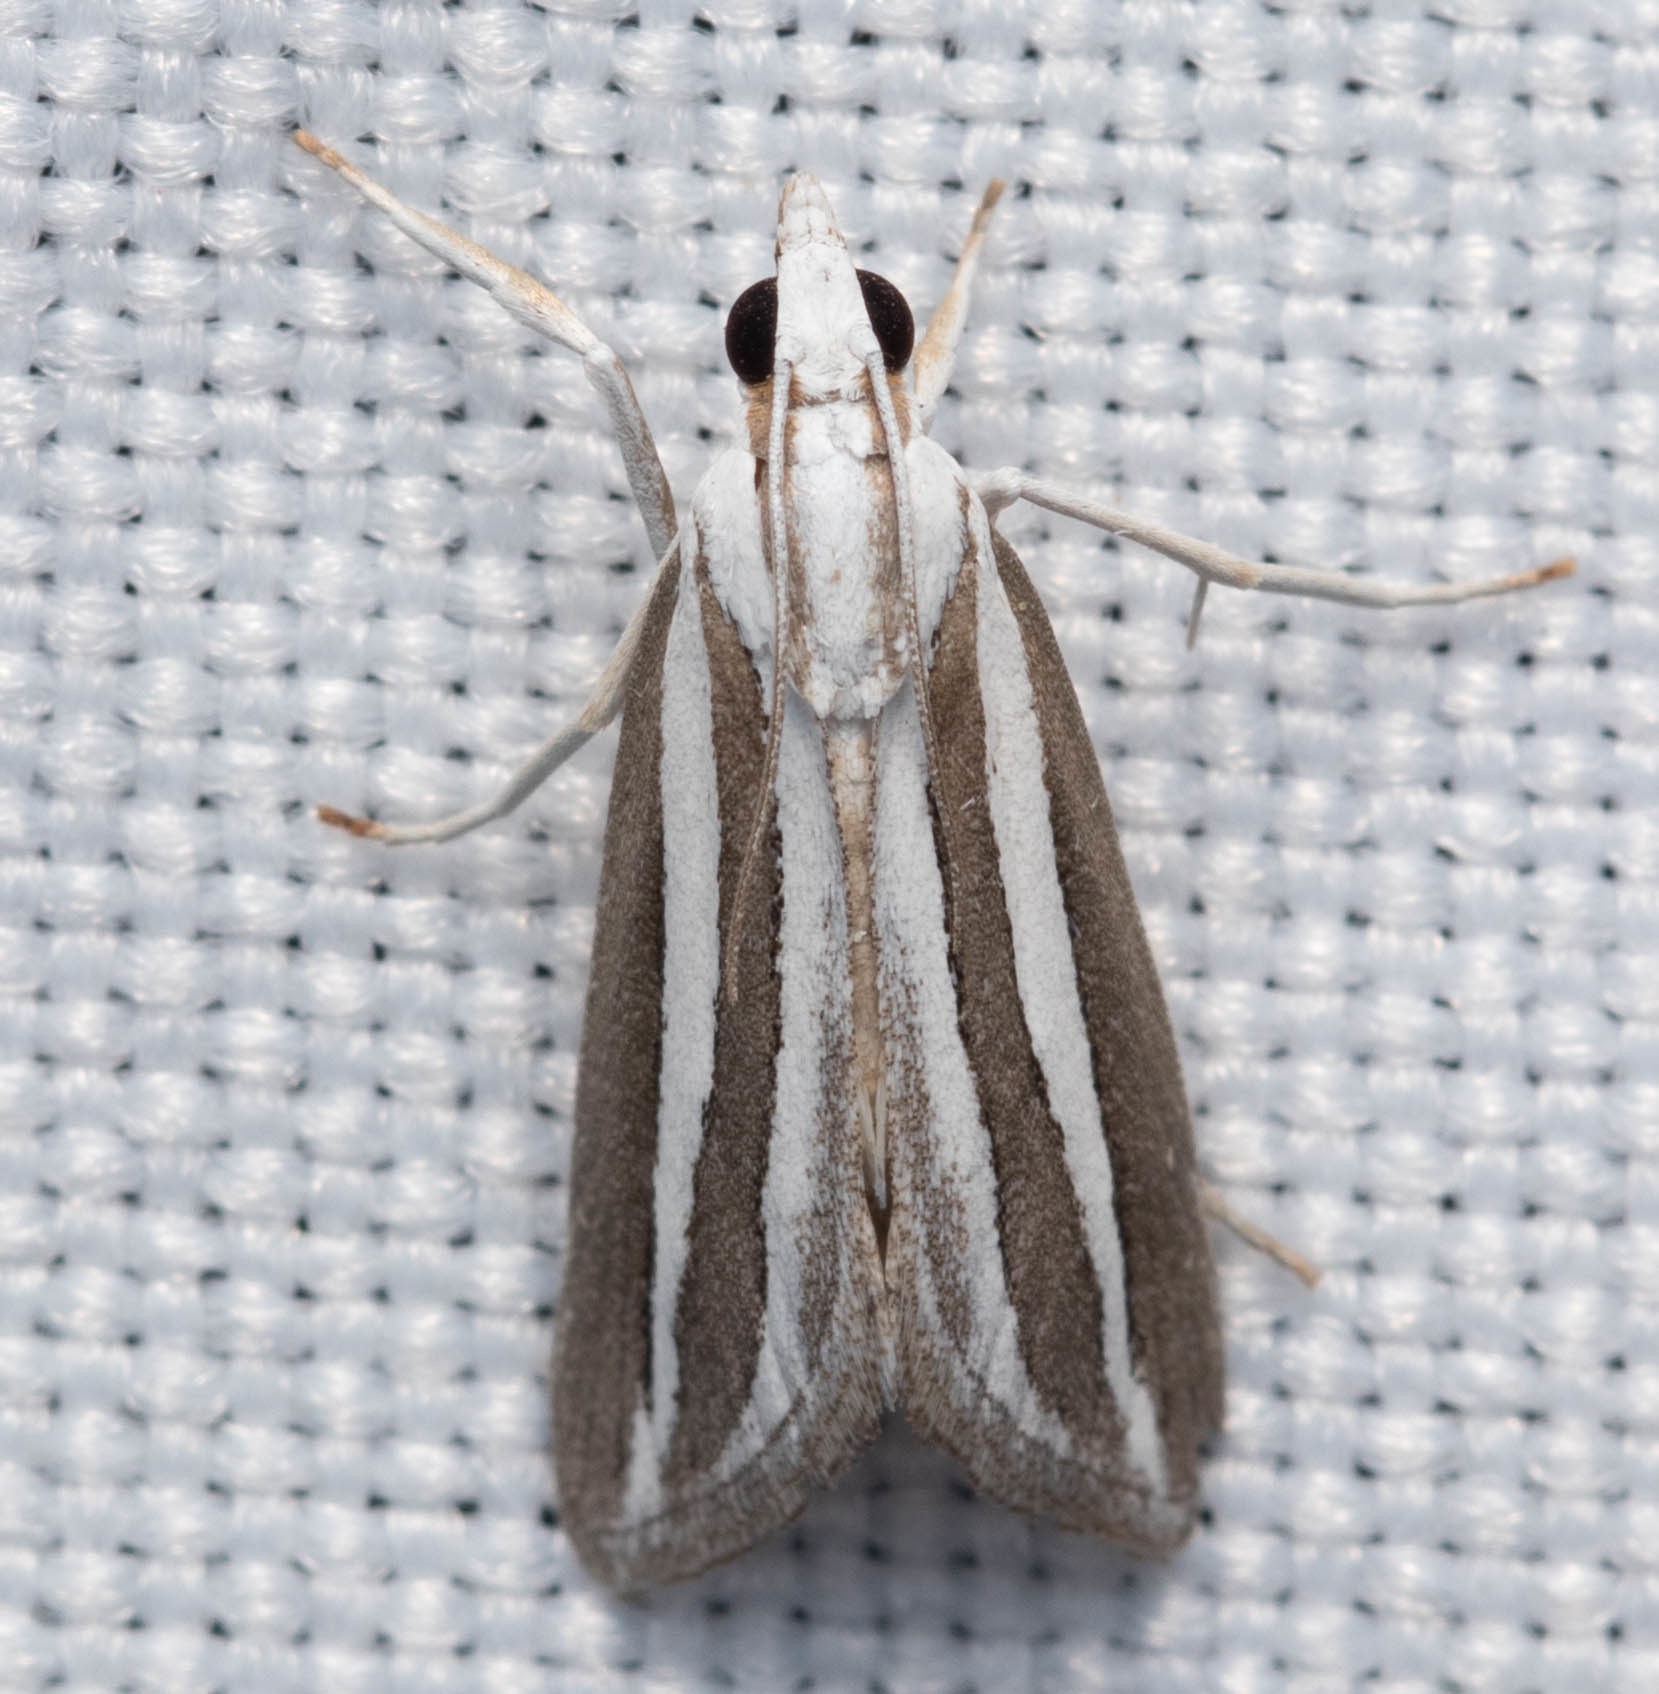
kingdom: Animalia
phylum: Arthropoda
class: Insecta
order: Lepidoptera
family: Crambidae
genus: Upiga
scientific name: Upiga virescens
